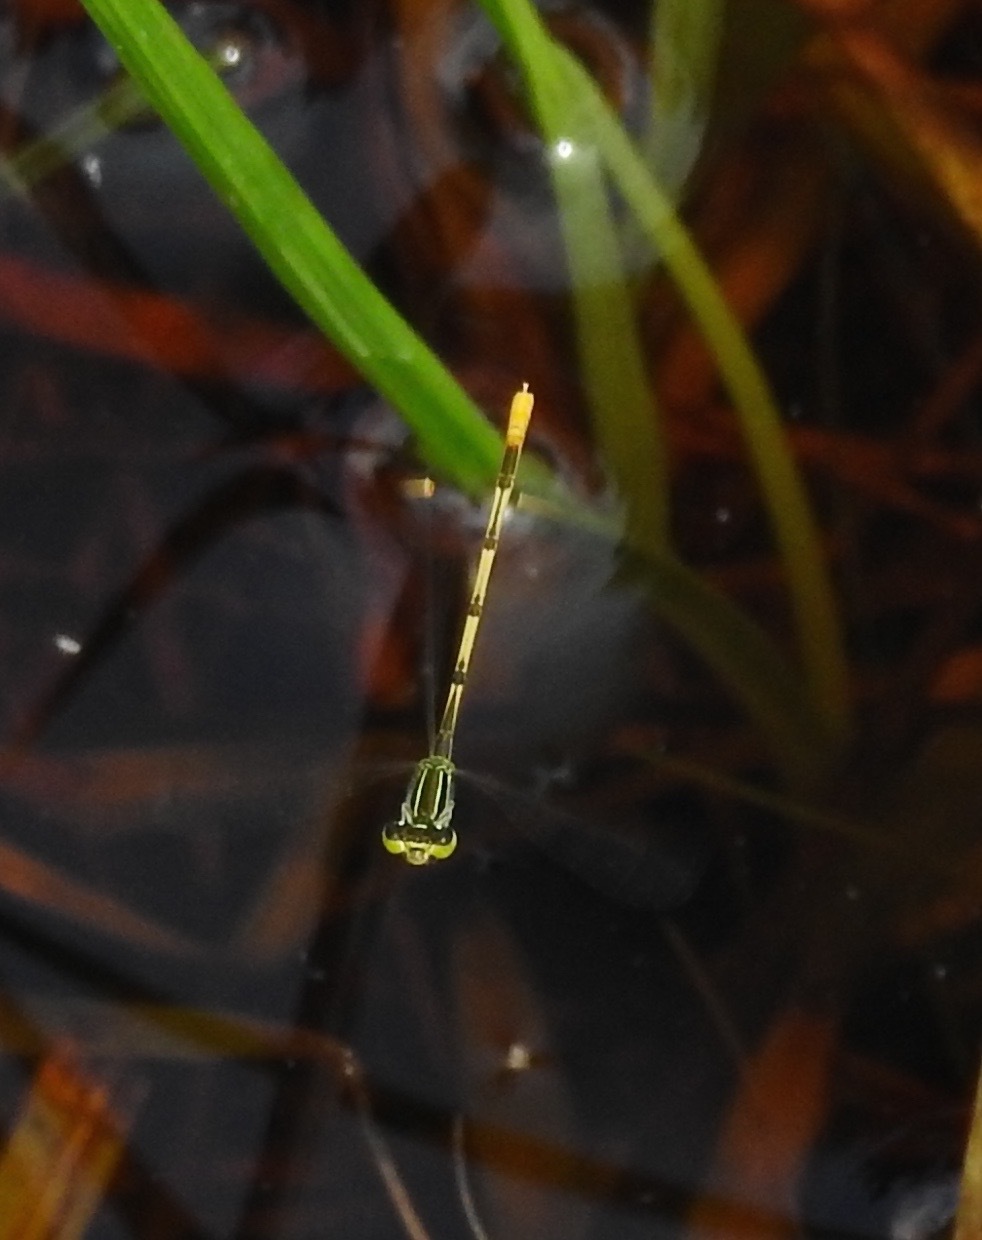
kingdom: Animalia
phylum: Arthropoda
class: Insecta
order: Odonata
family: Coenagrionidae
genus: Ischnura
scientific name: Ischnura hastata
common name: Citrine forktail
